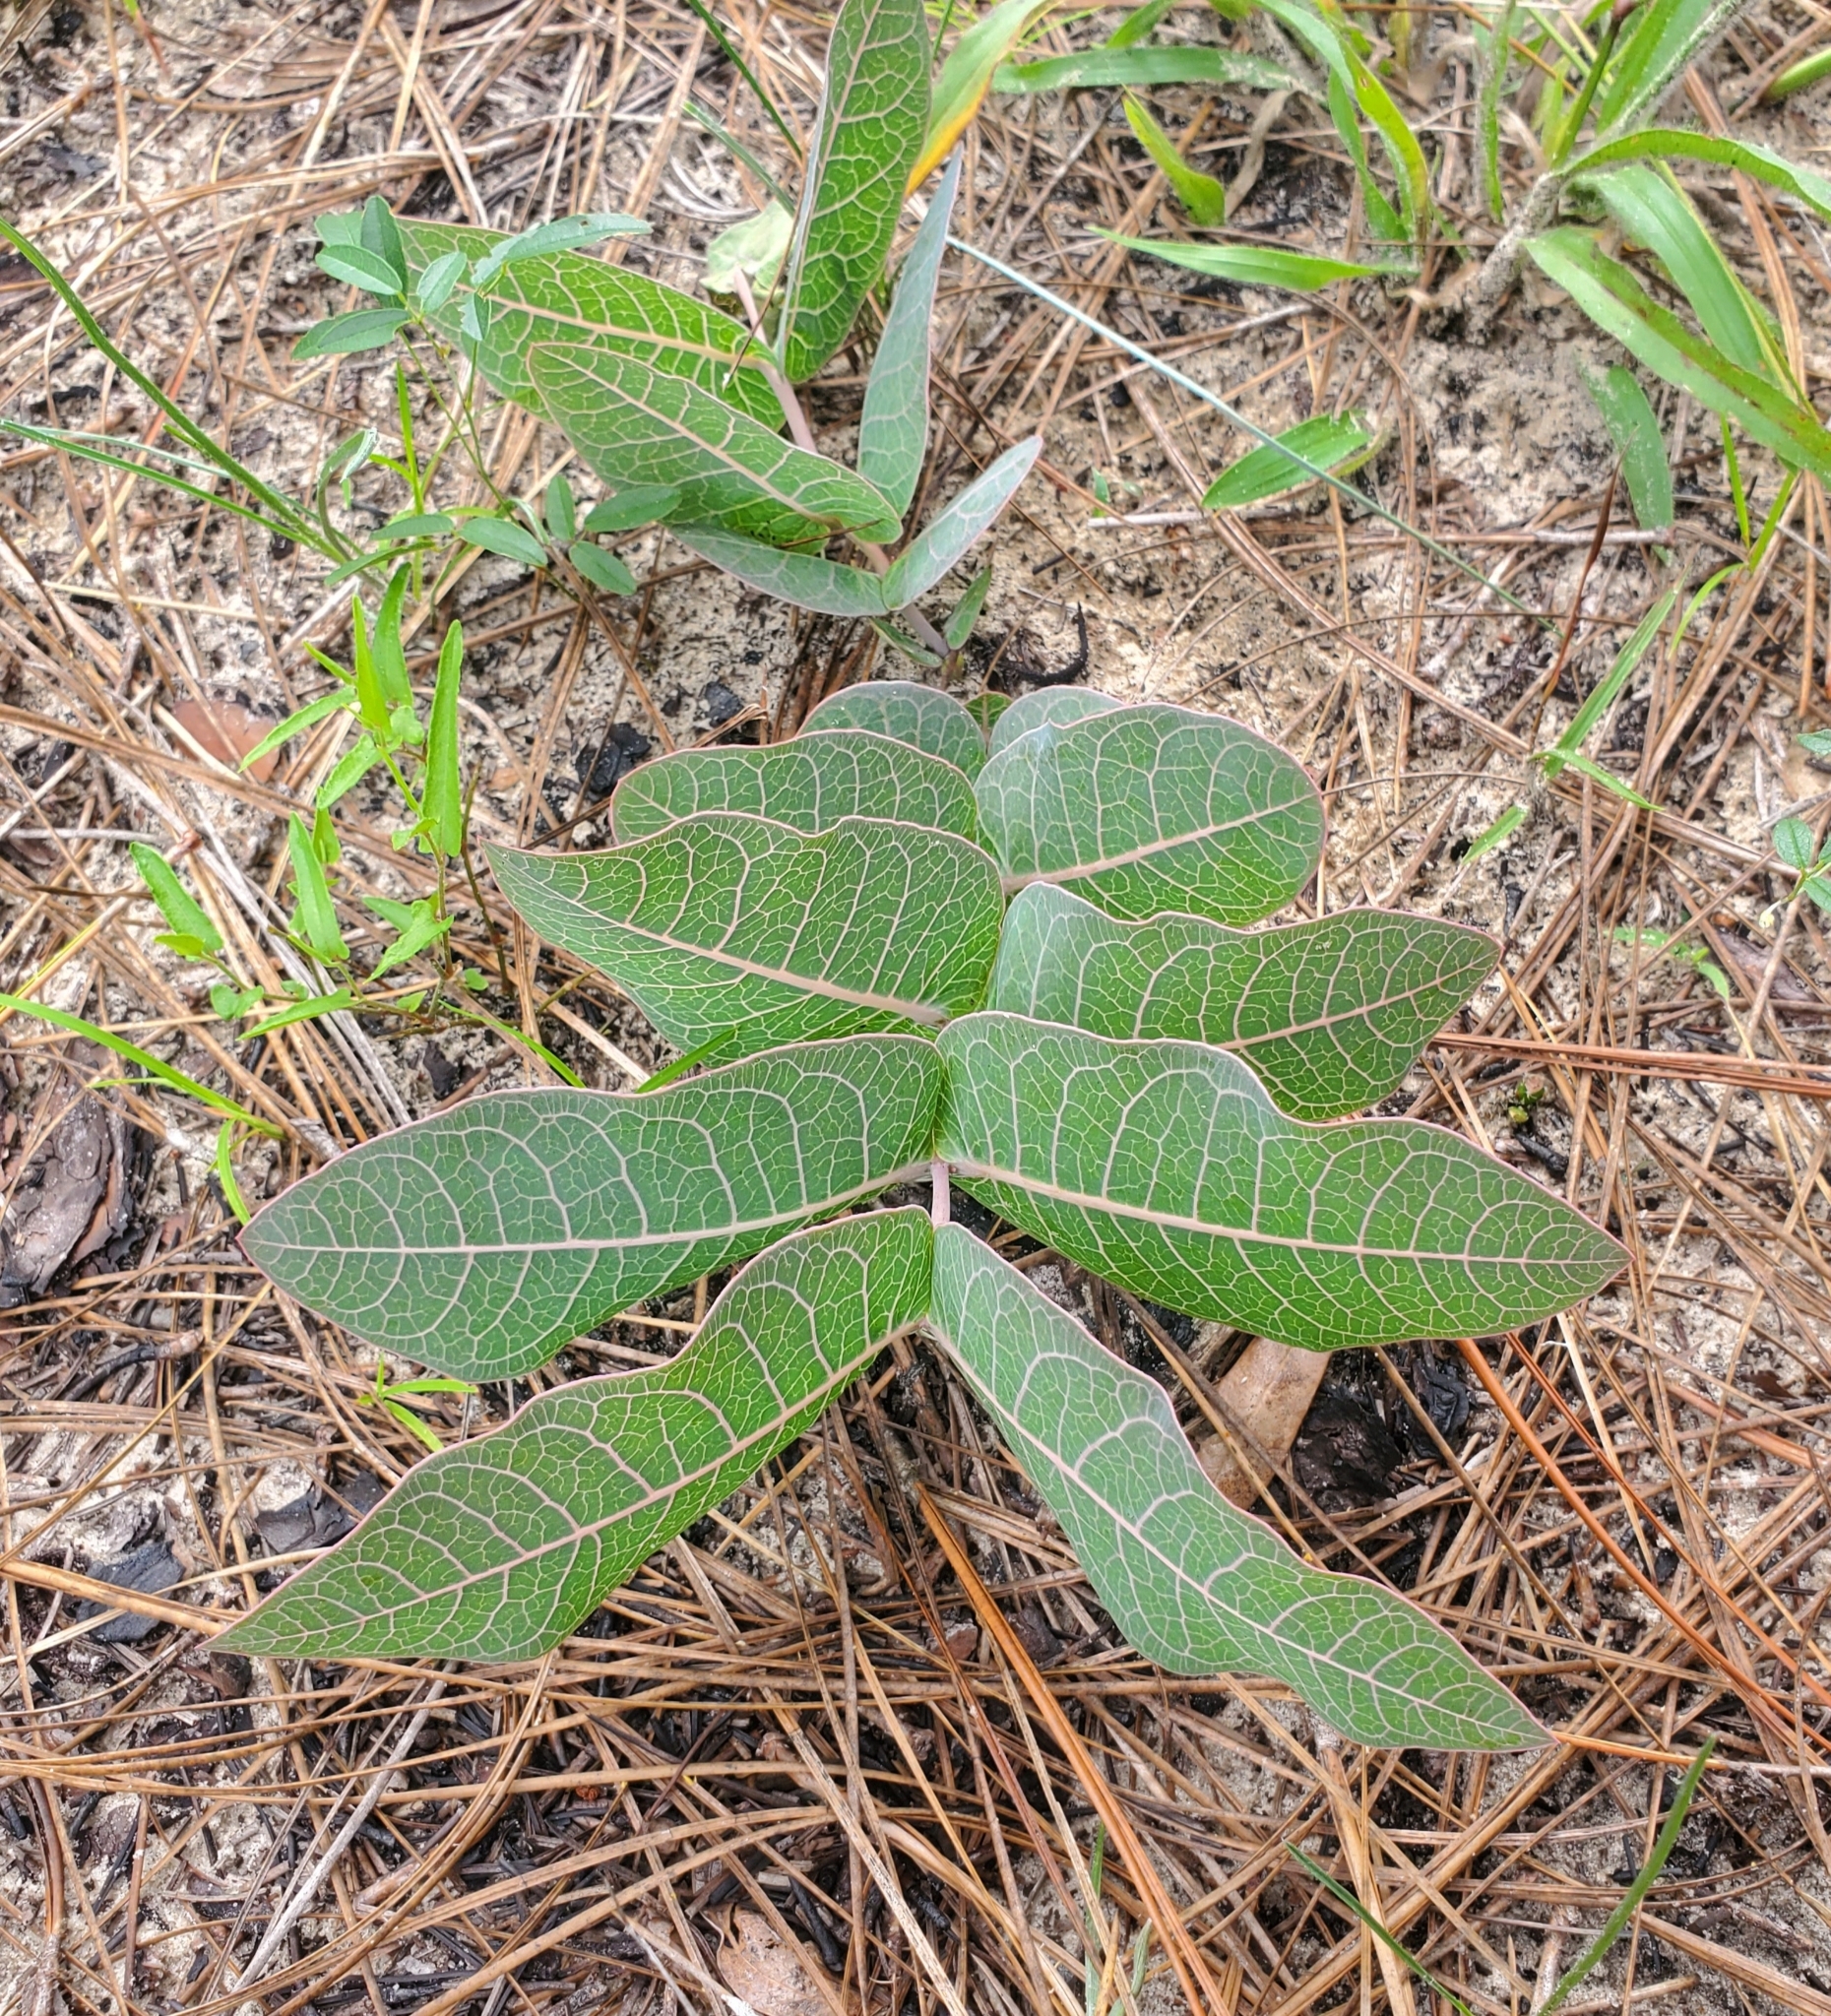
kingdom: Plantae
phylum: Tracheophyta
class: Magnoliopsida
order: Gentianales
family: Apocynaceae
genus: Asclepias
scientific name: Asclepias humistrata
